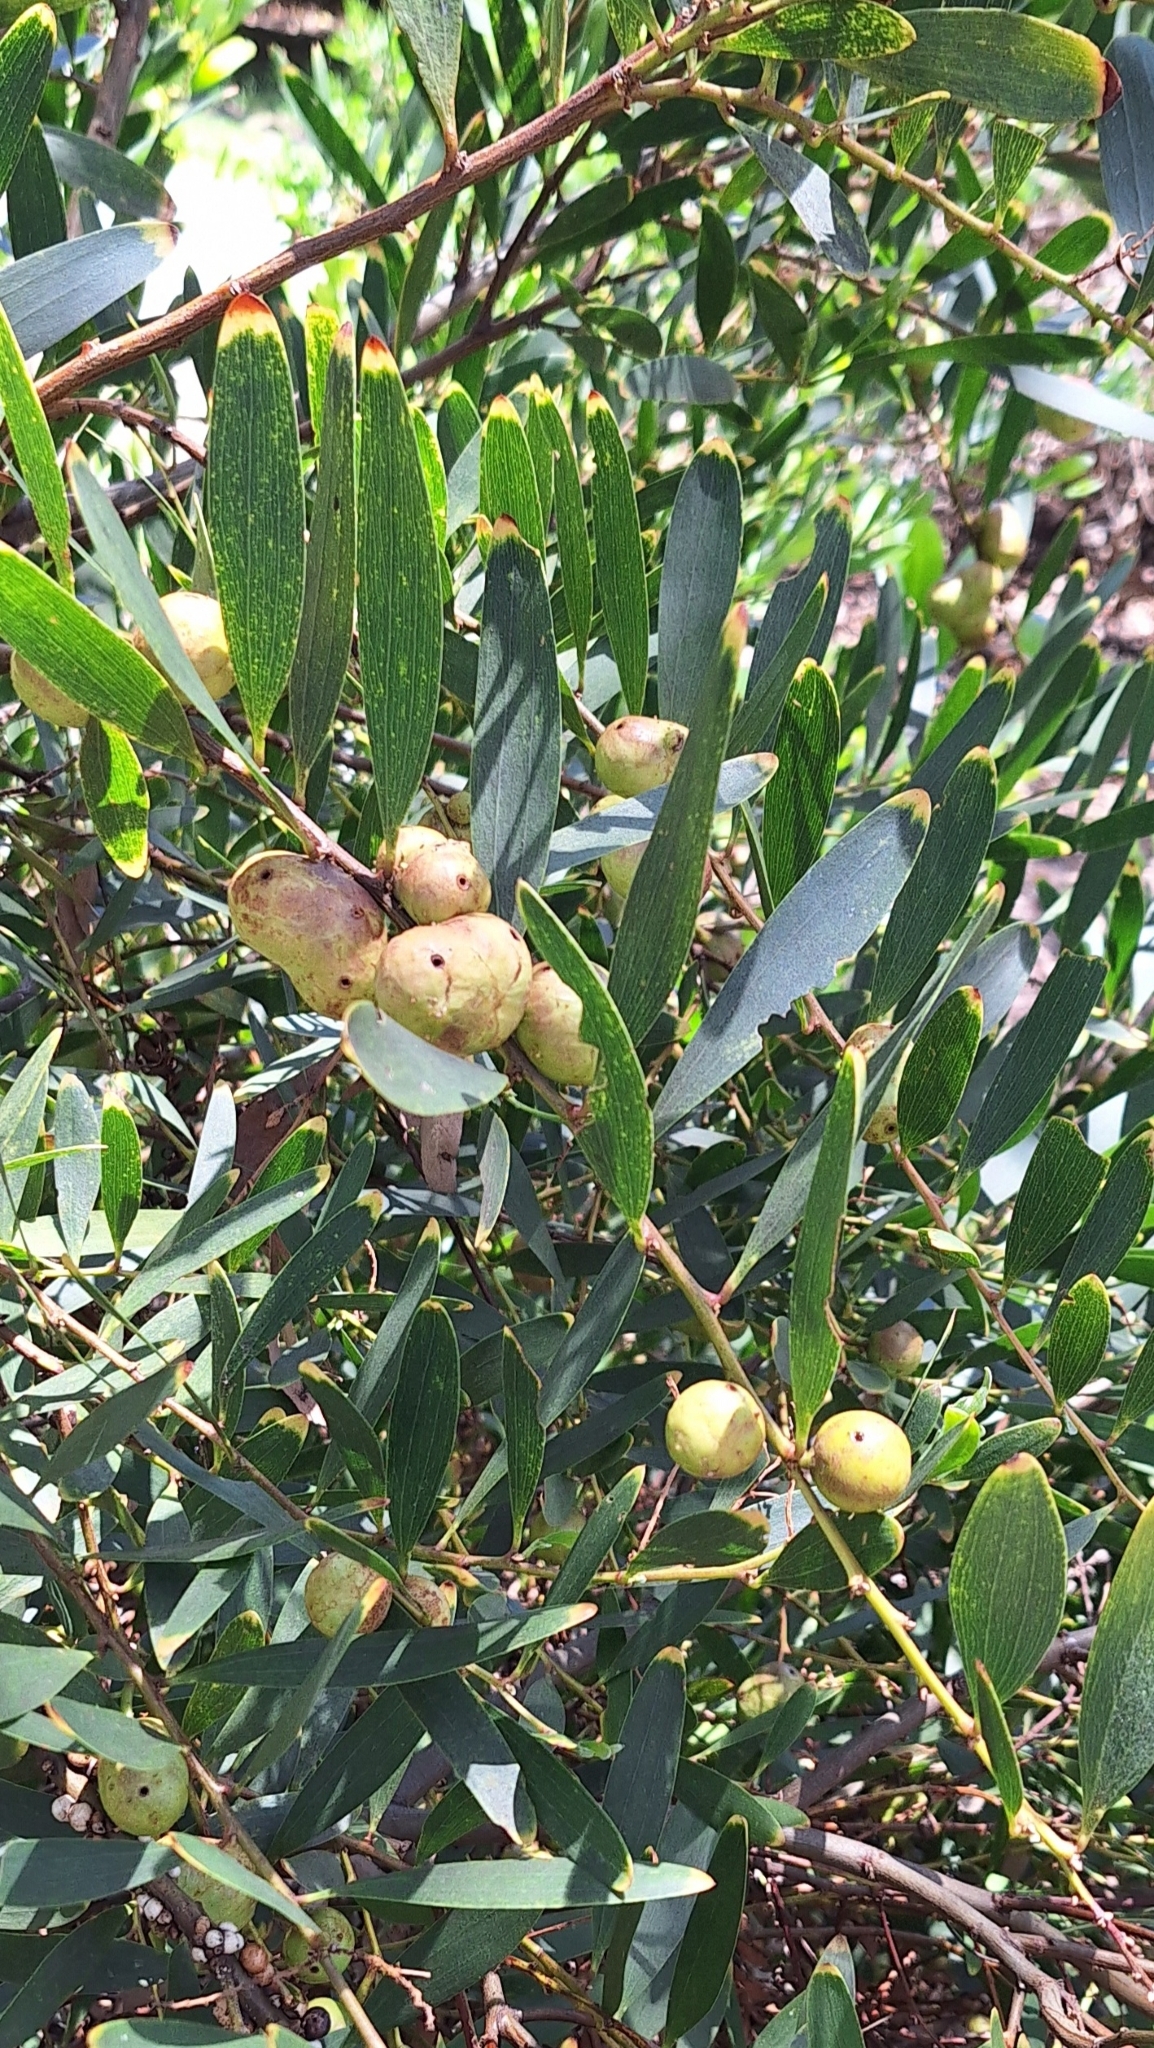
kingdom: Plantae
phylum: Tracheophyta
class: Magnoliopsida
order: Fabales
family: Fabaceae
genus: Acacia
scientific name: Acacia longifolia
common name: Sydney golden wattle
